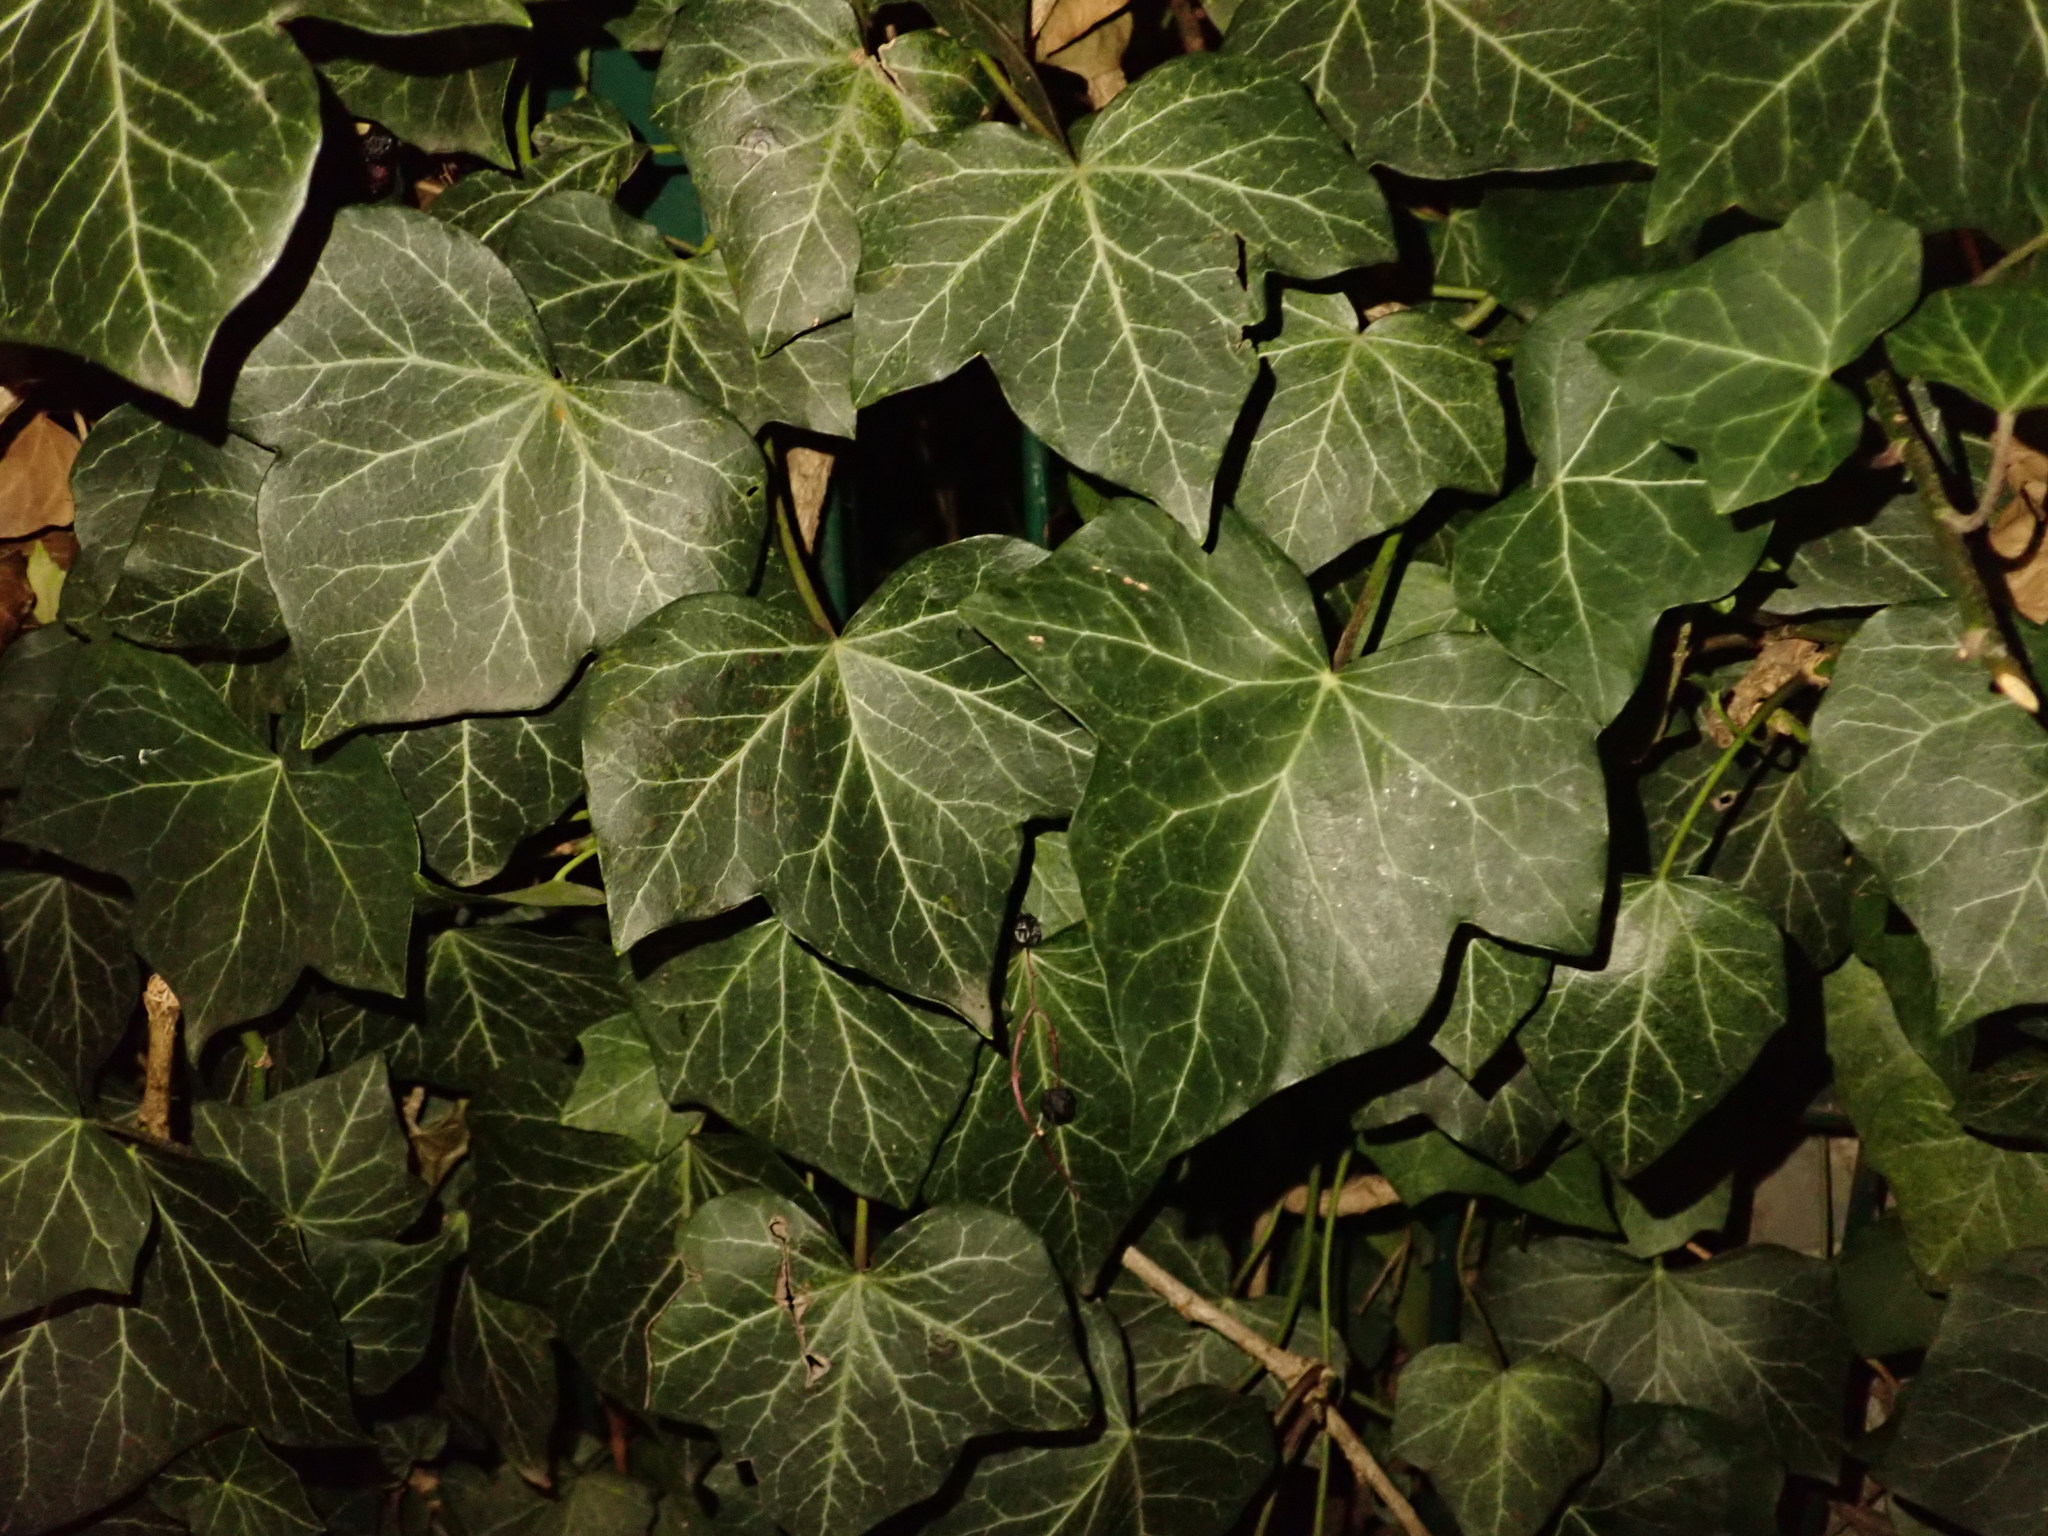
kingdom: Plantae
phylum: Tracheophyta
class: Magnoliopsida
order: Apiales
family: Araliaceae
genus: Hedera
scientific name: Hedera helix
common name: Ivy
